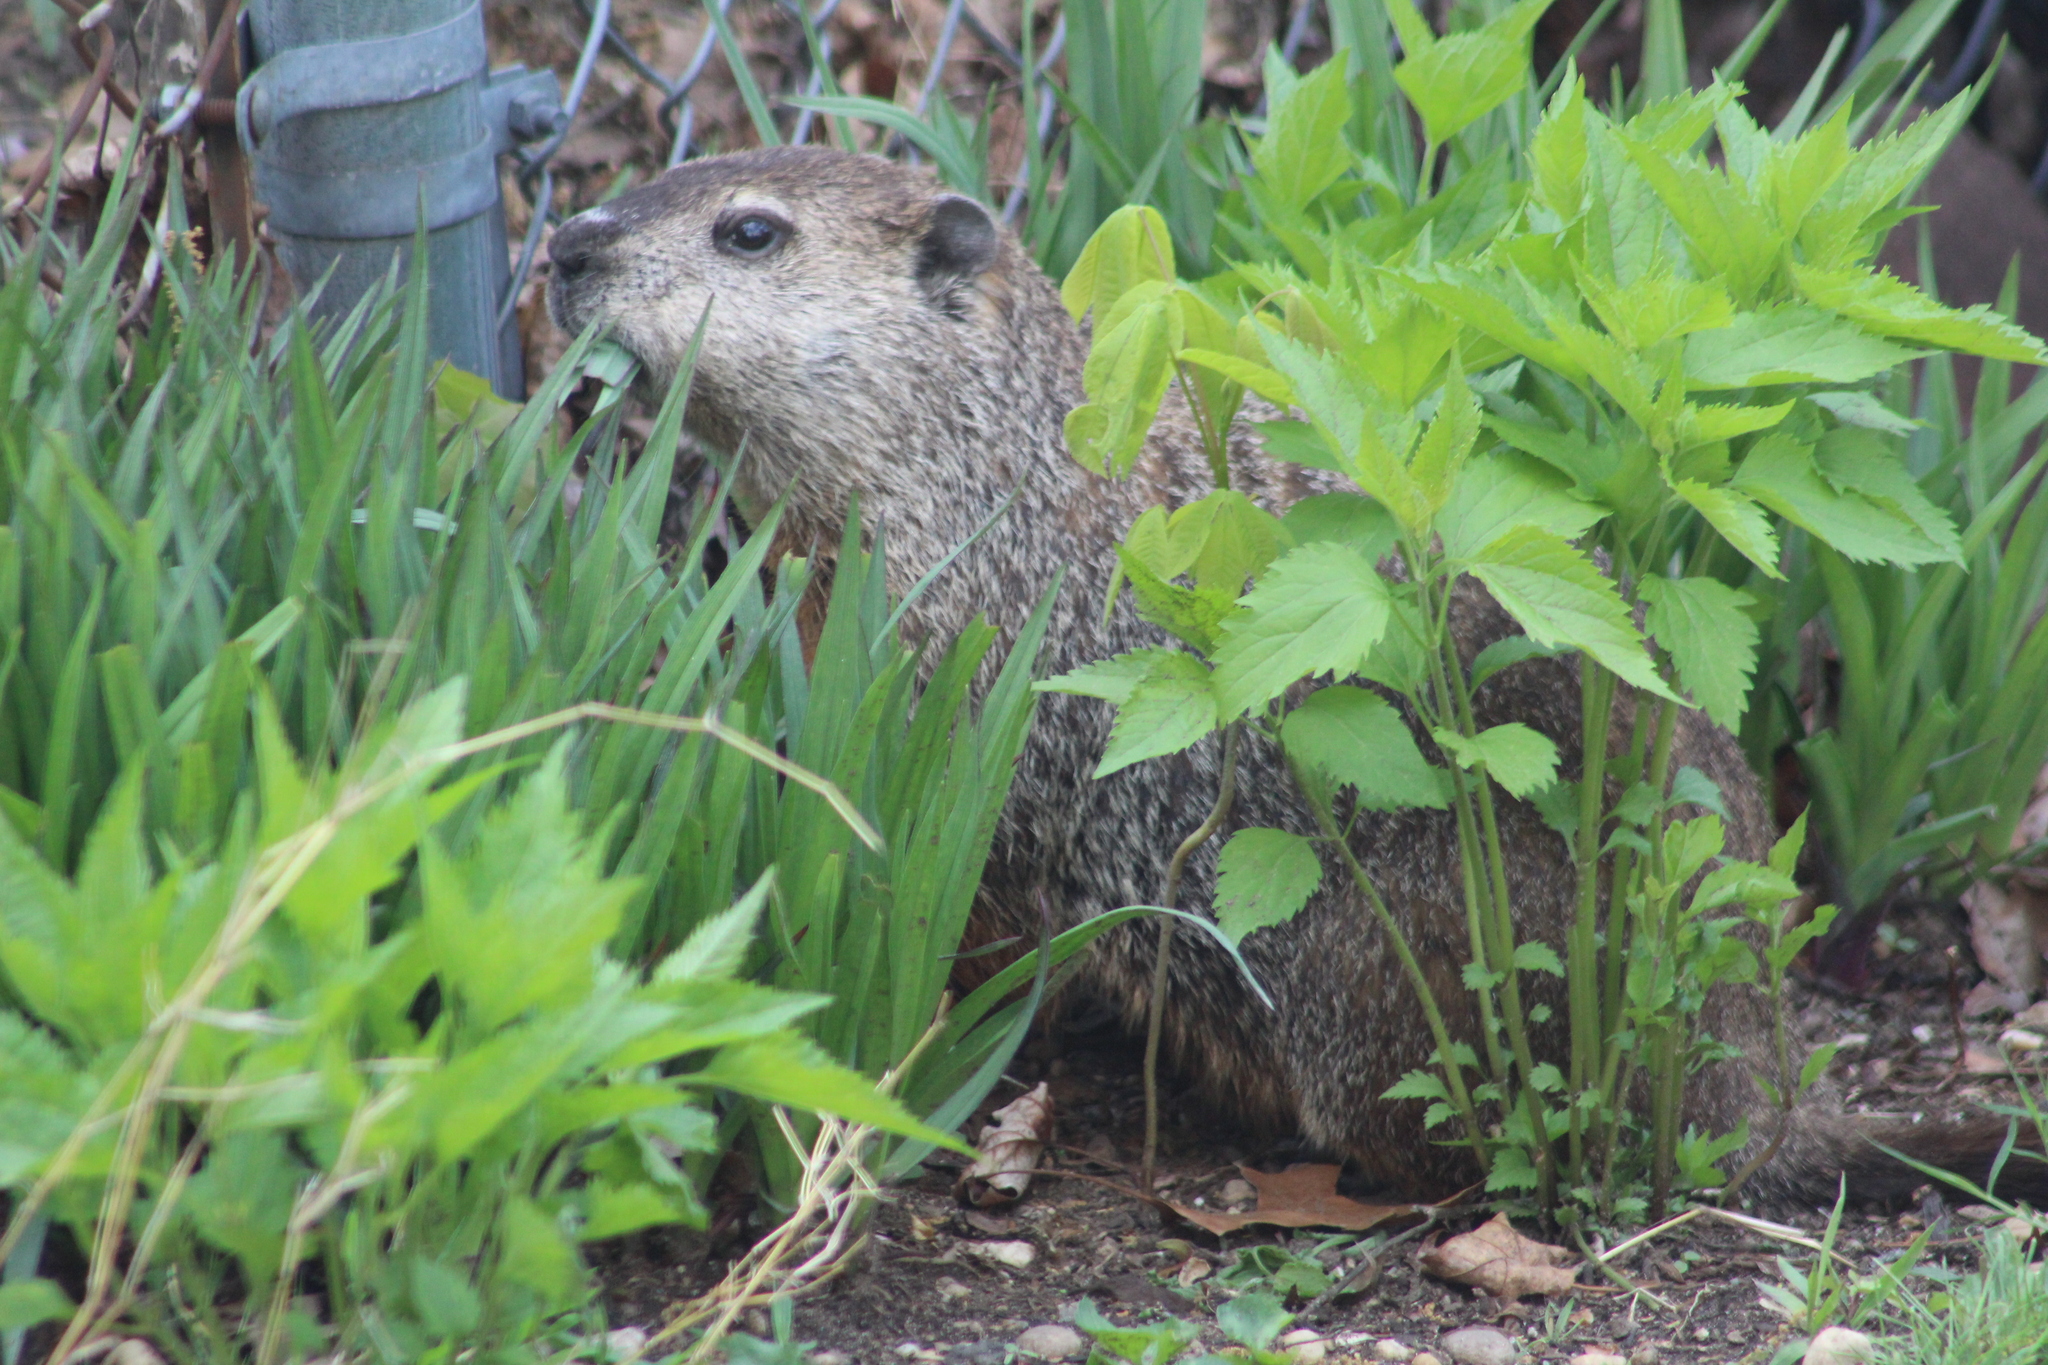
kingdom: Animalia
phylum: Chordata
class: Mammalia
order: Rodentia
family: Sciuridae
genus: Marmota
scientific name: Marmota monax
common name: Groundhog
